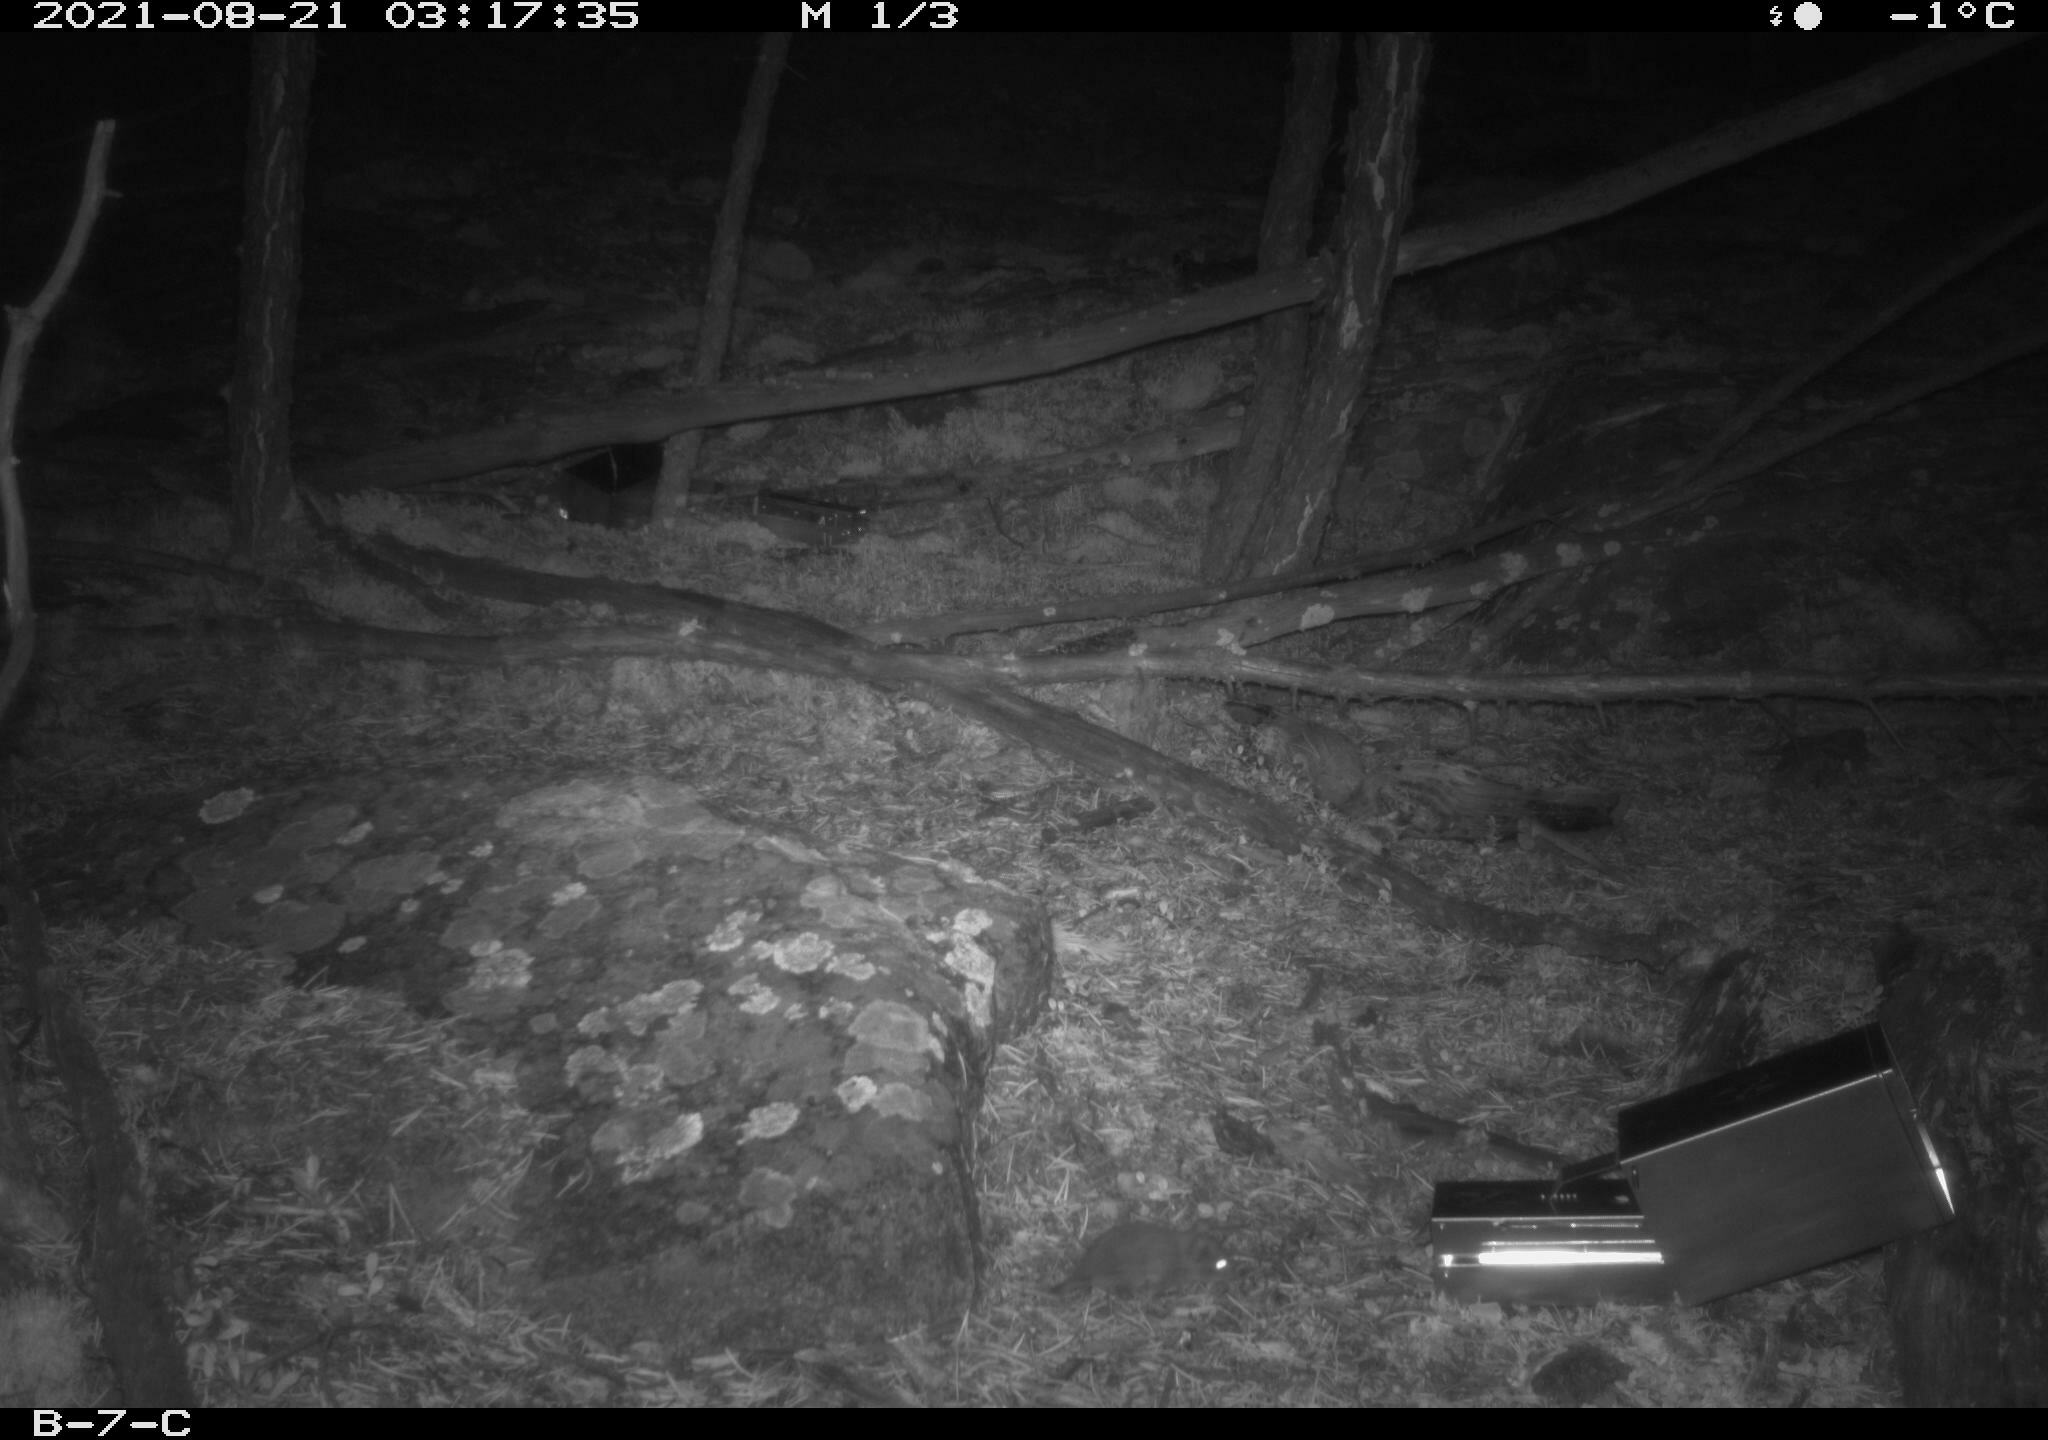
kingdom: Animalia
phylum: Chordata
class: Mammalia
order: Rodentia
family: Cricetidae
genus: Myodes
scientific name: Myodes rutilus
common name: Northern red-backed vole
